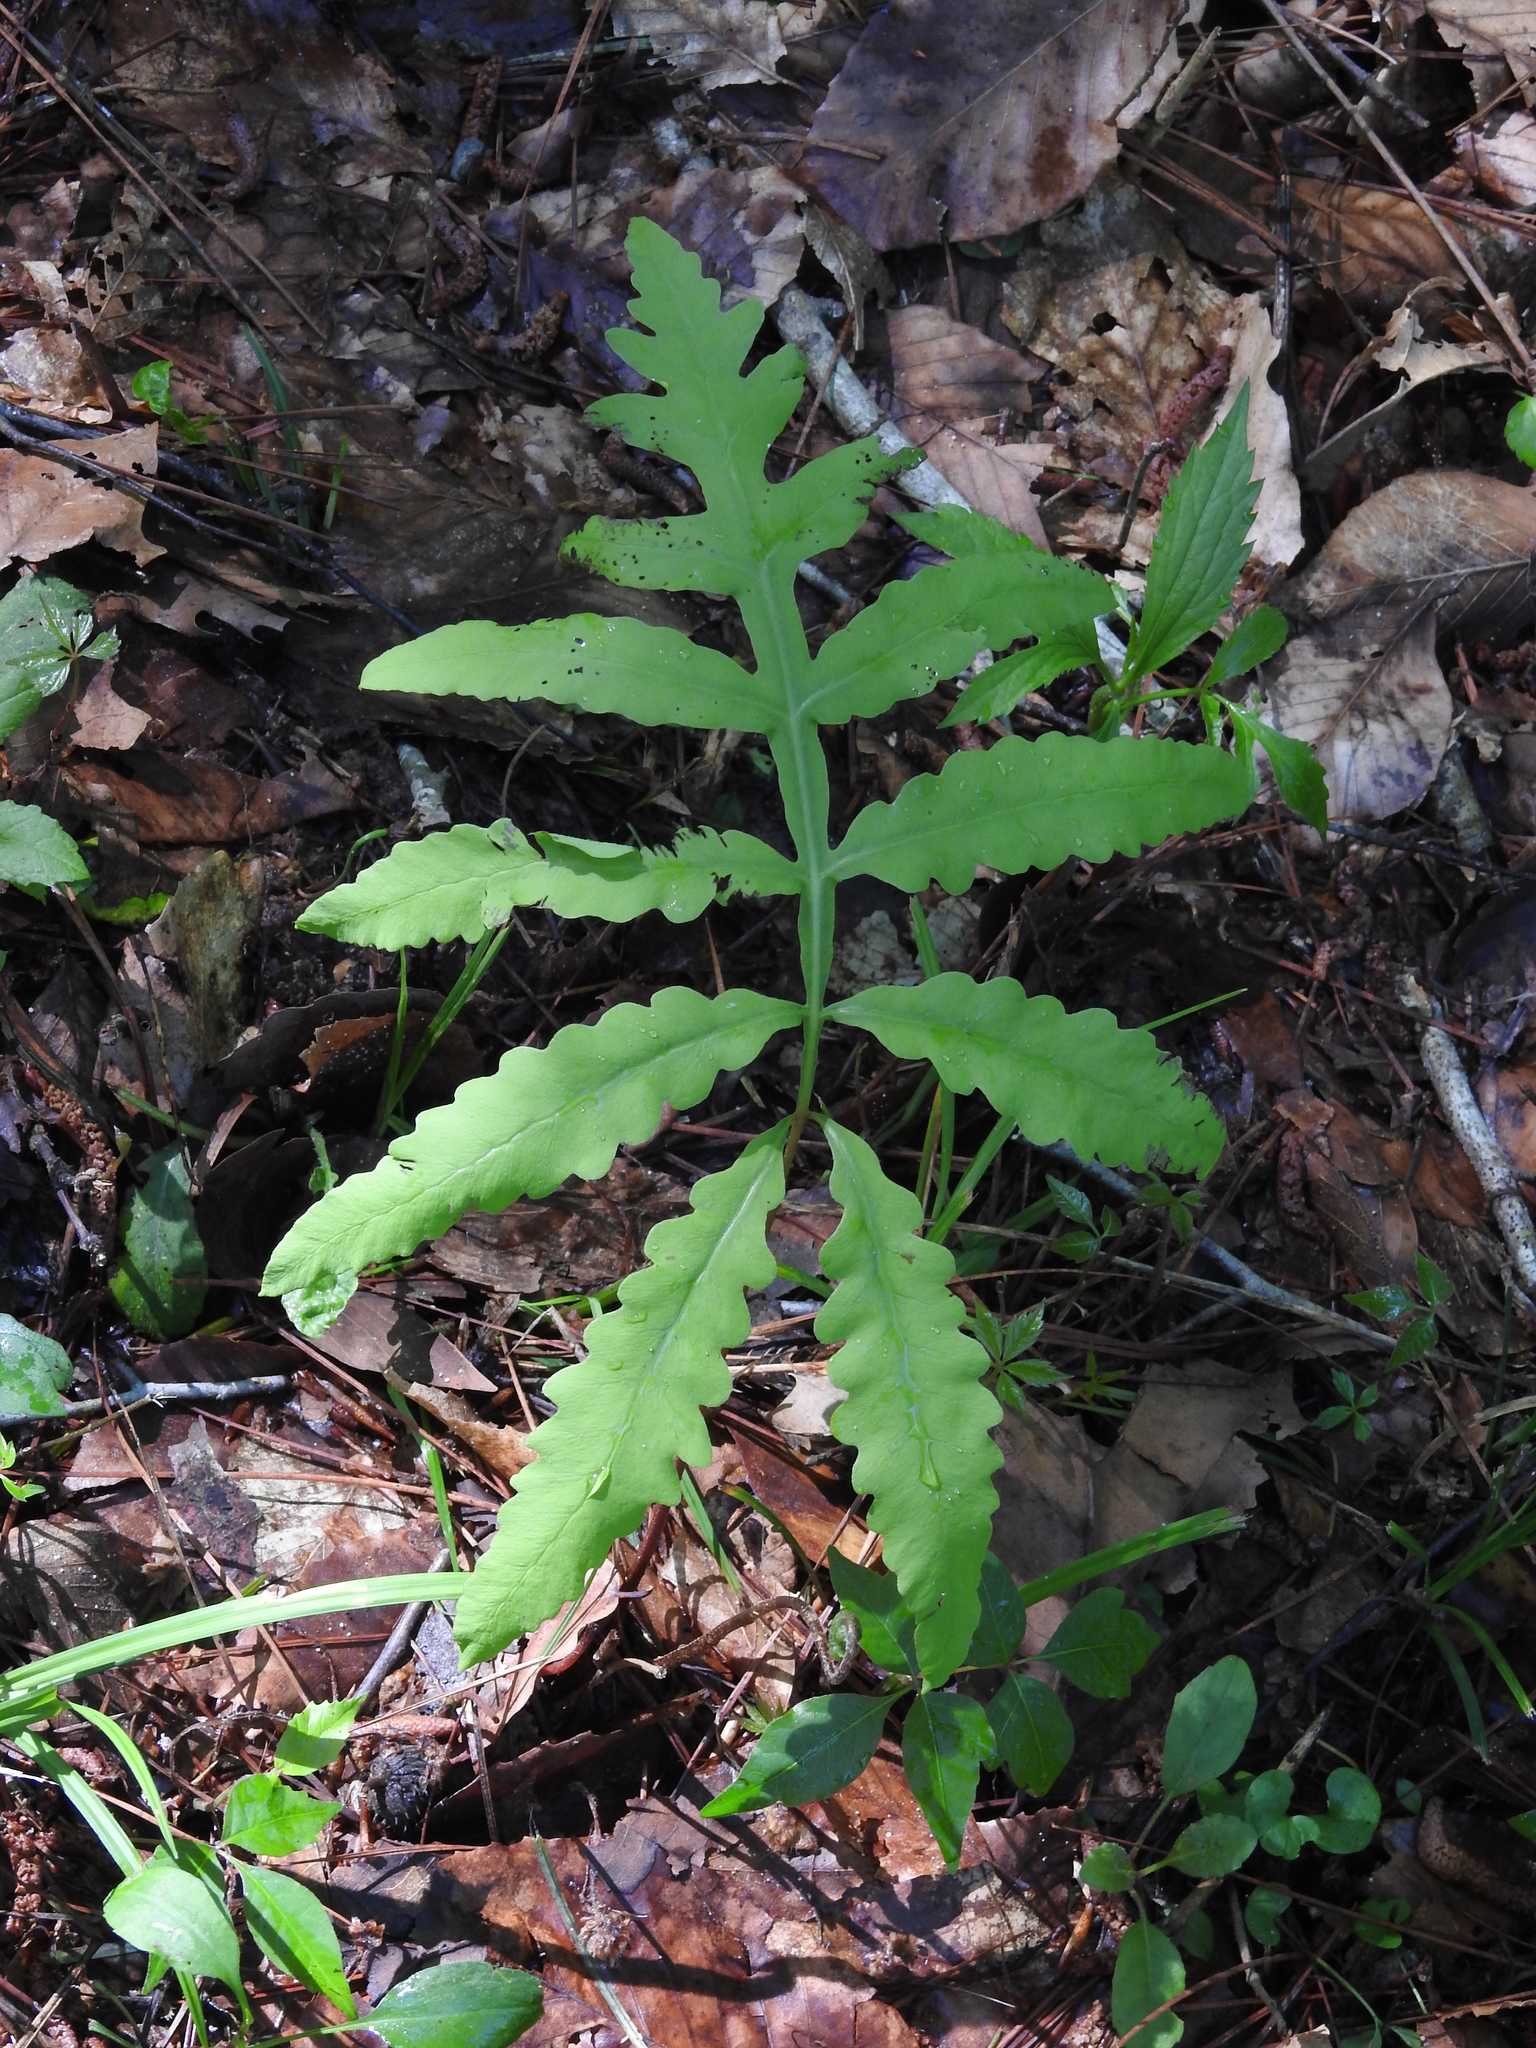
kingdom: Plantae
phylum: Tracheophyta
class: Polypodiopsida
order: Polypodiales
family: Onocleaceae
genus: Onoclea
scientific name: Onoclea sensibilis
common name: Sensitive fern
